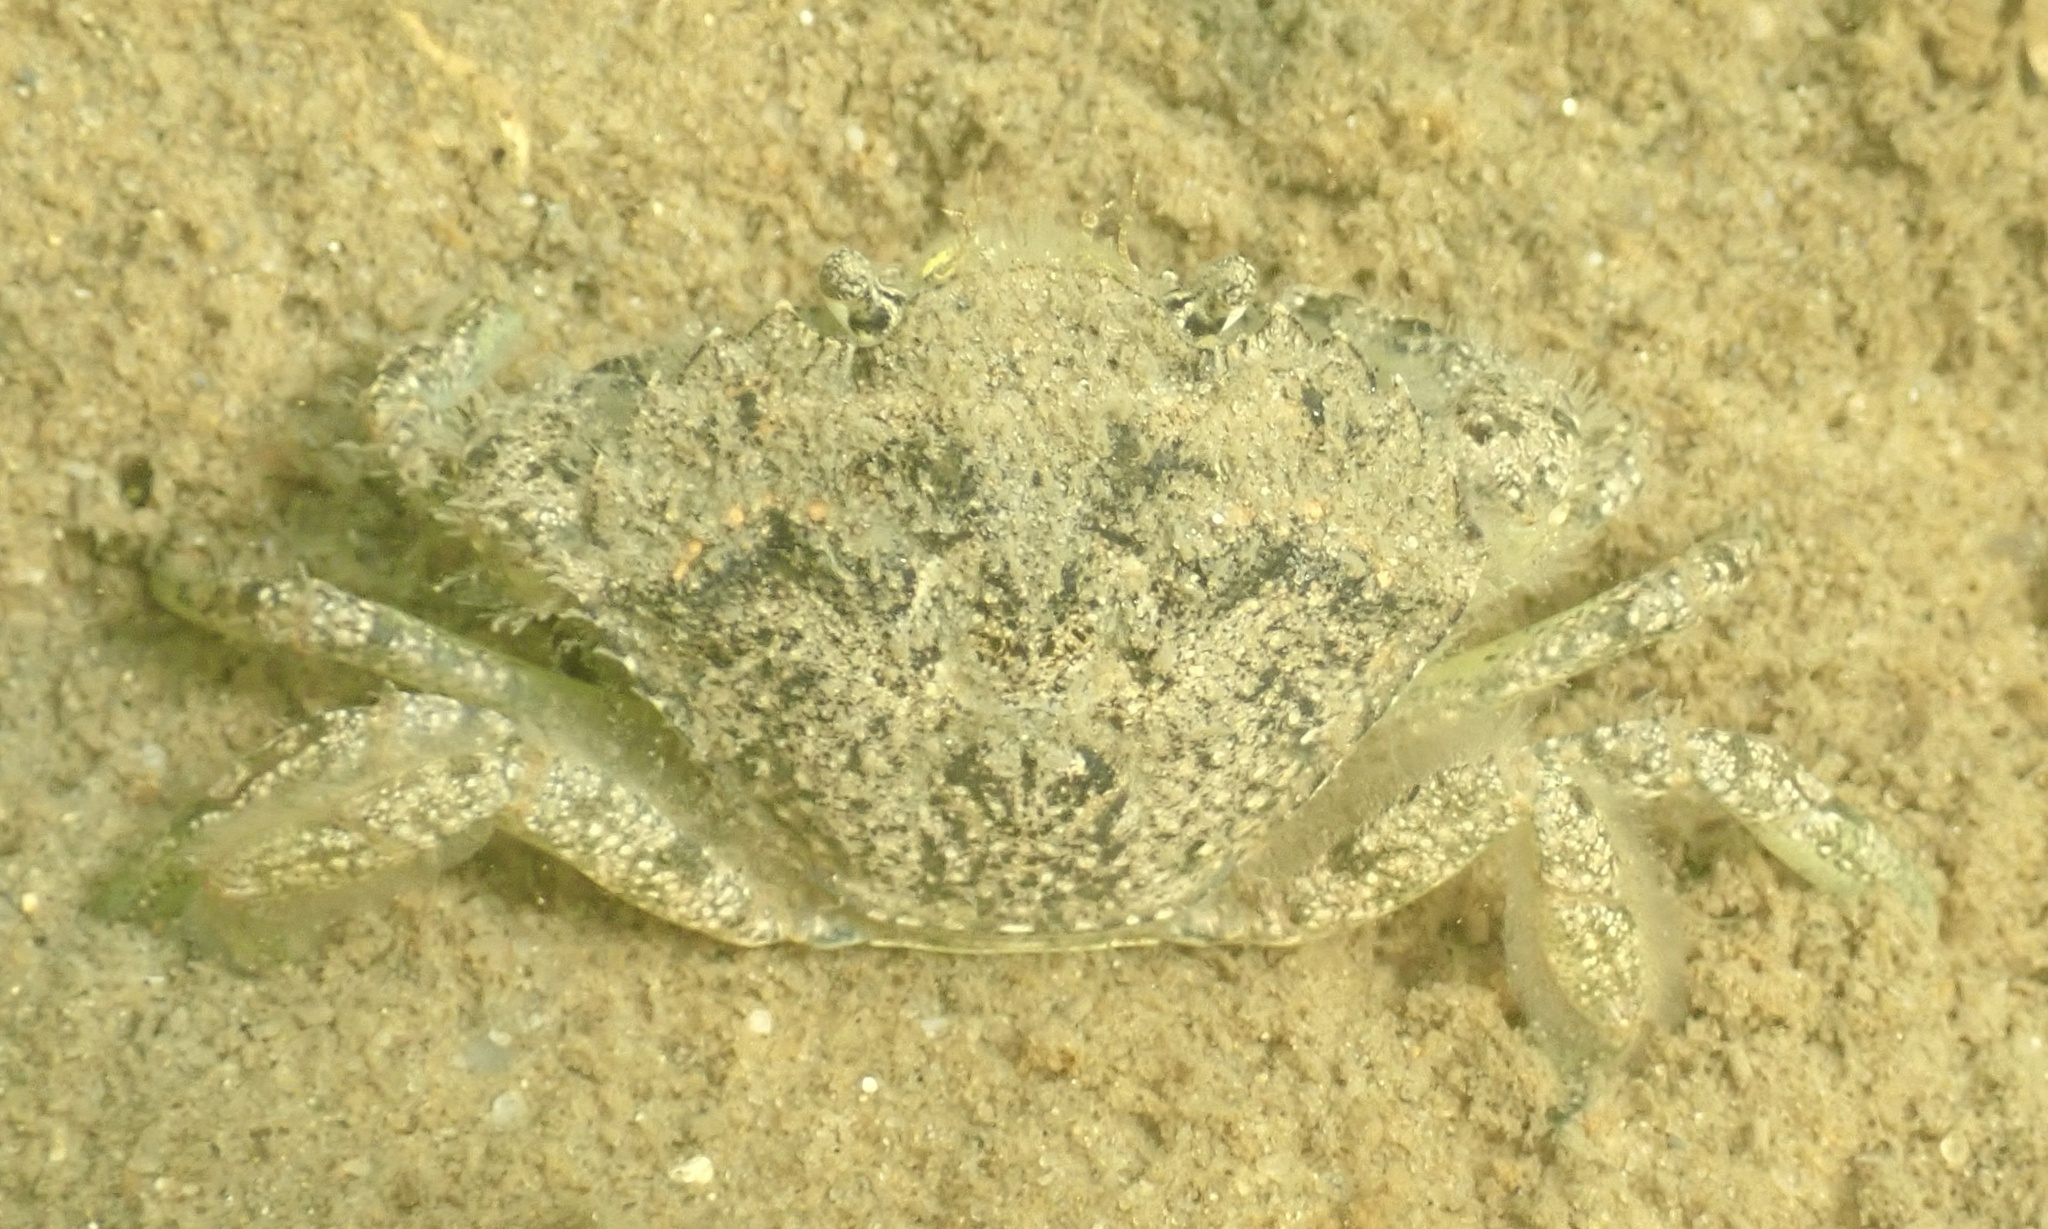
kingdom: Animalia
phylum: Arthropoda
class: Malacostraca
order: Decapoda
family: Carcinidae
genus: Carcinus
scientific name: Carcinus maenas
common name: European green crab
